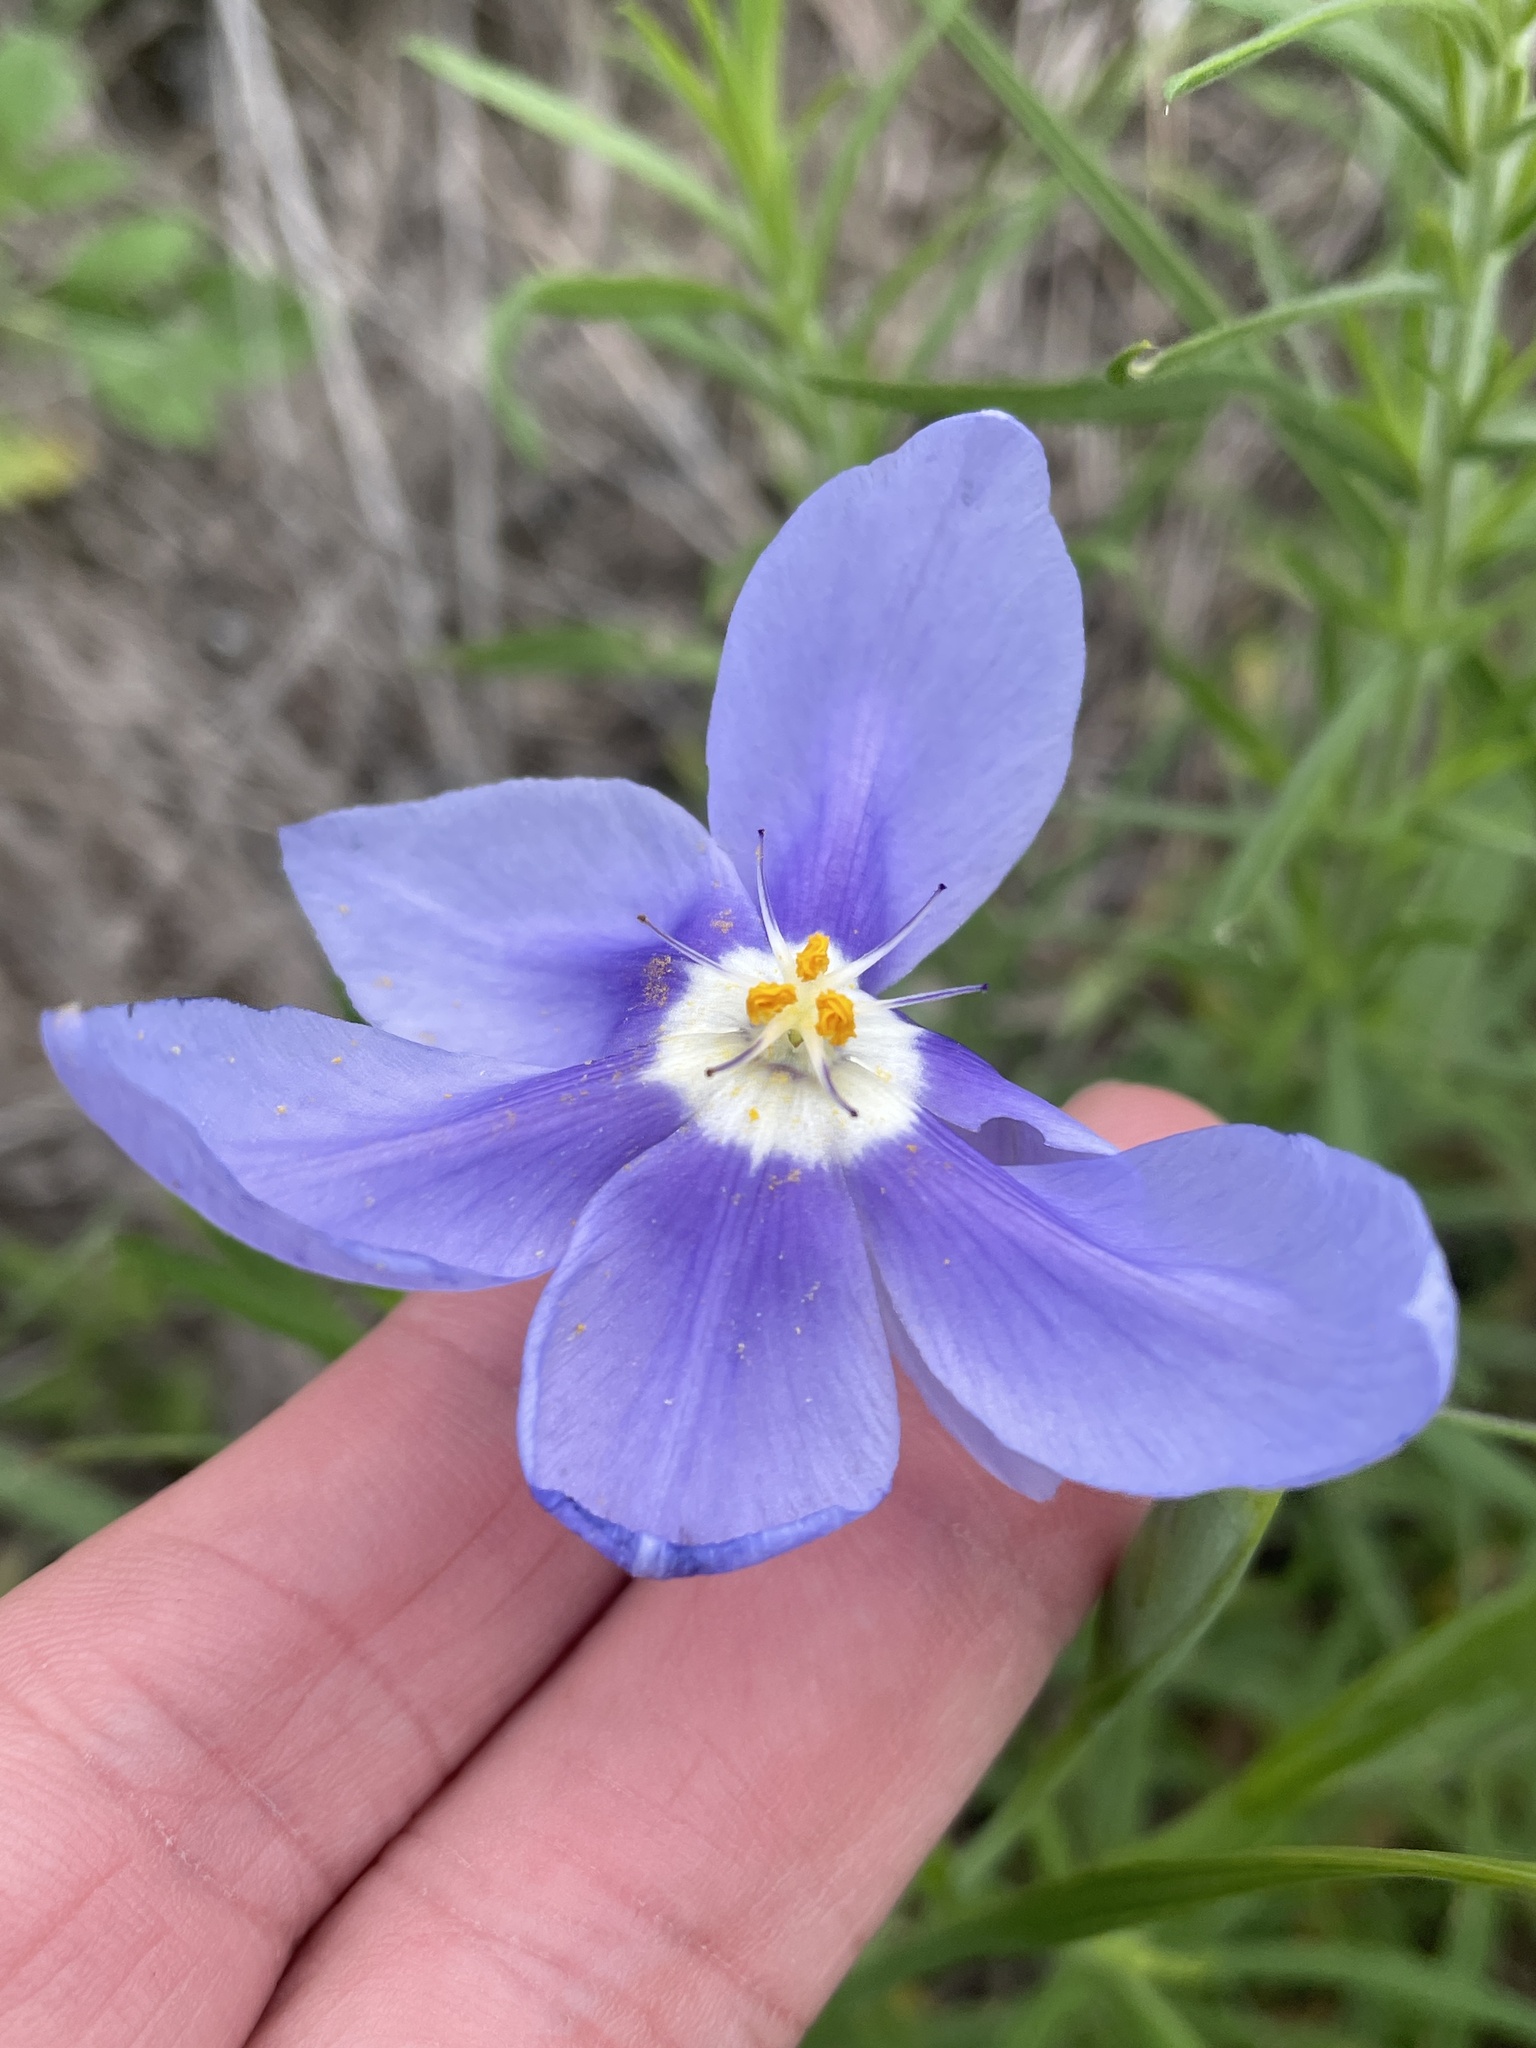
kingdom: Plantae
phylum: Tracheophyta
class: Liliopsida
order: Asparagales
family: Iridaceae
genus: Nemastylis
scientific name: Nemastylis geminiflora
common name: Prairie celestial
